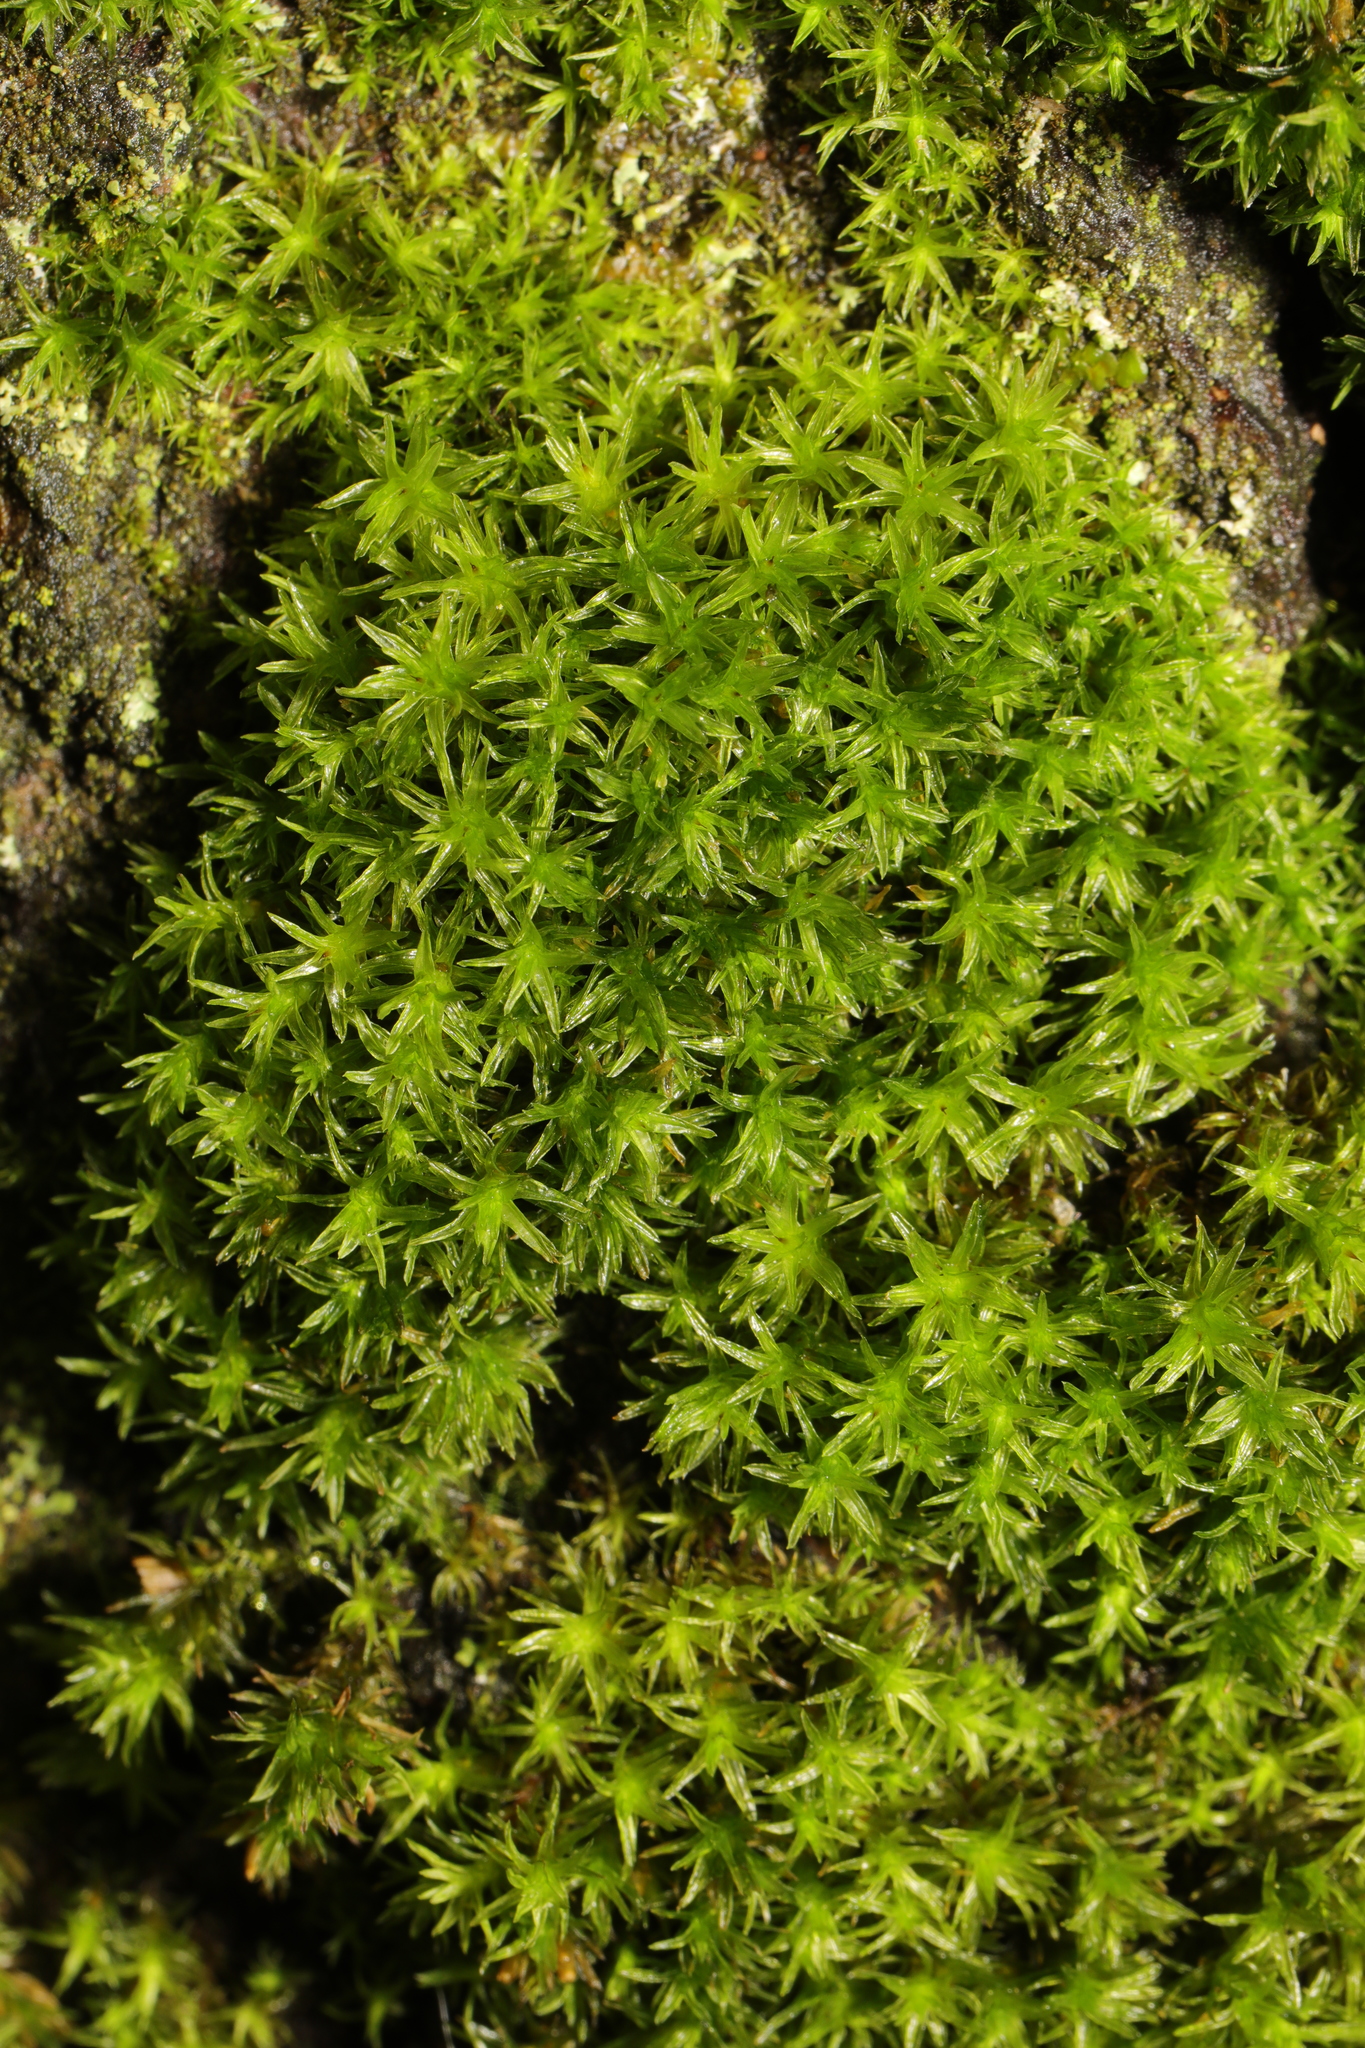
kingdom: Plantae
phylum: Bryophyta
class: Bryopsida
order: Pottiales
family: Pottiaceae
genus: Trichostomum
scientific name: Trichostomum brachydontium
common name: Variable crisp-moss
